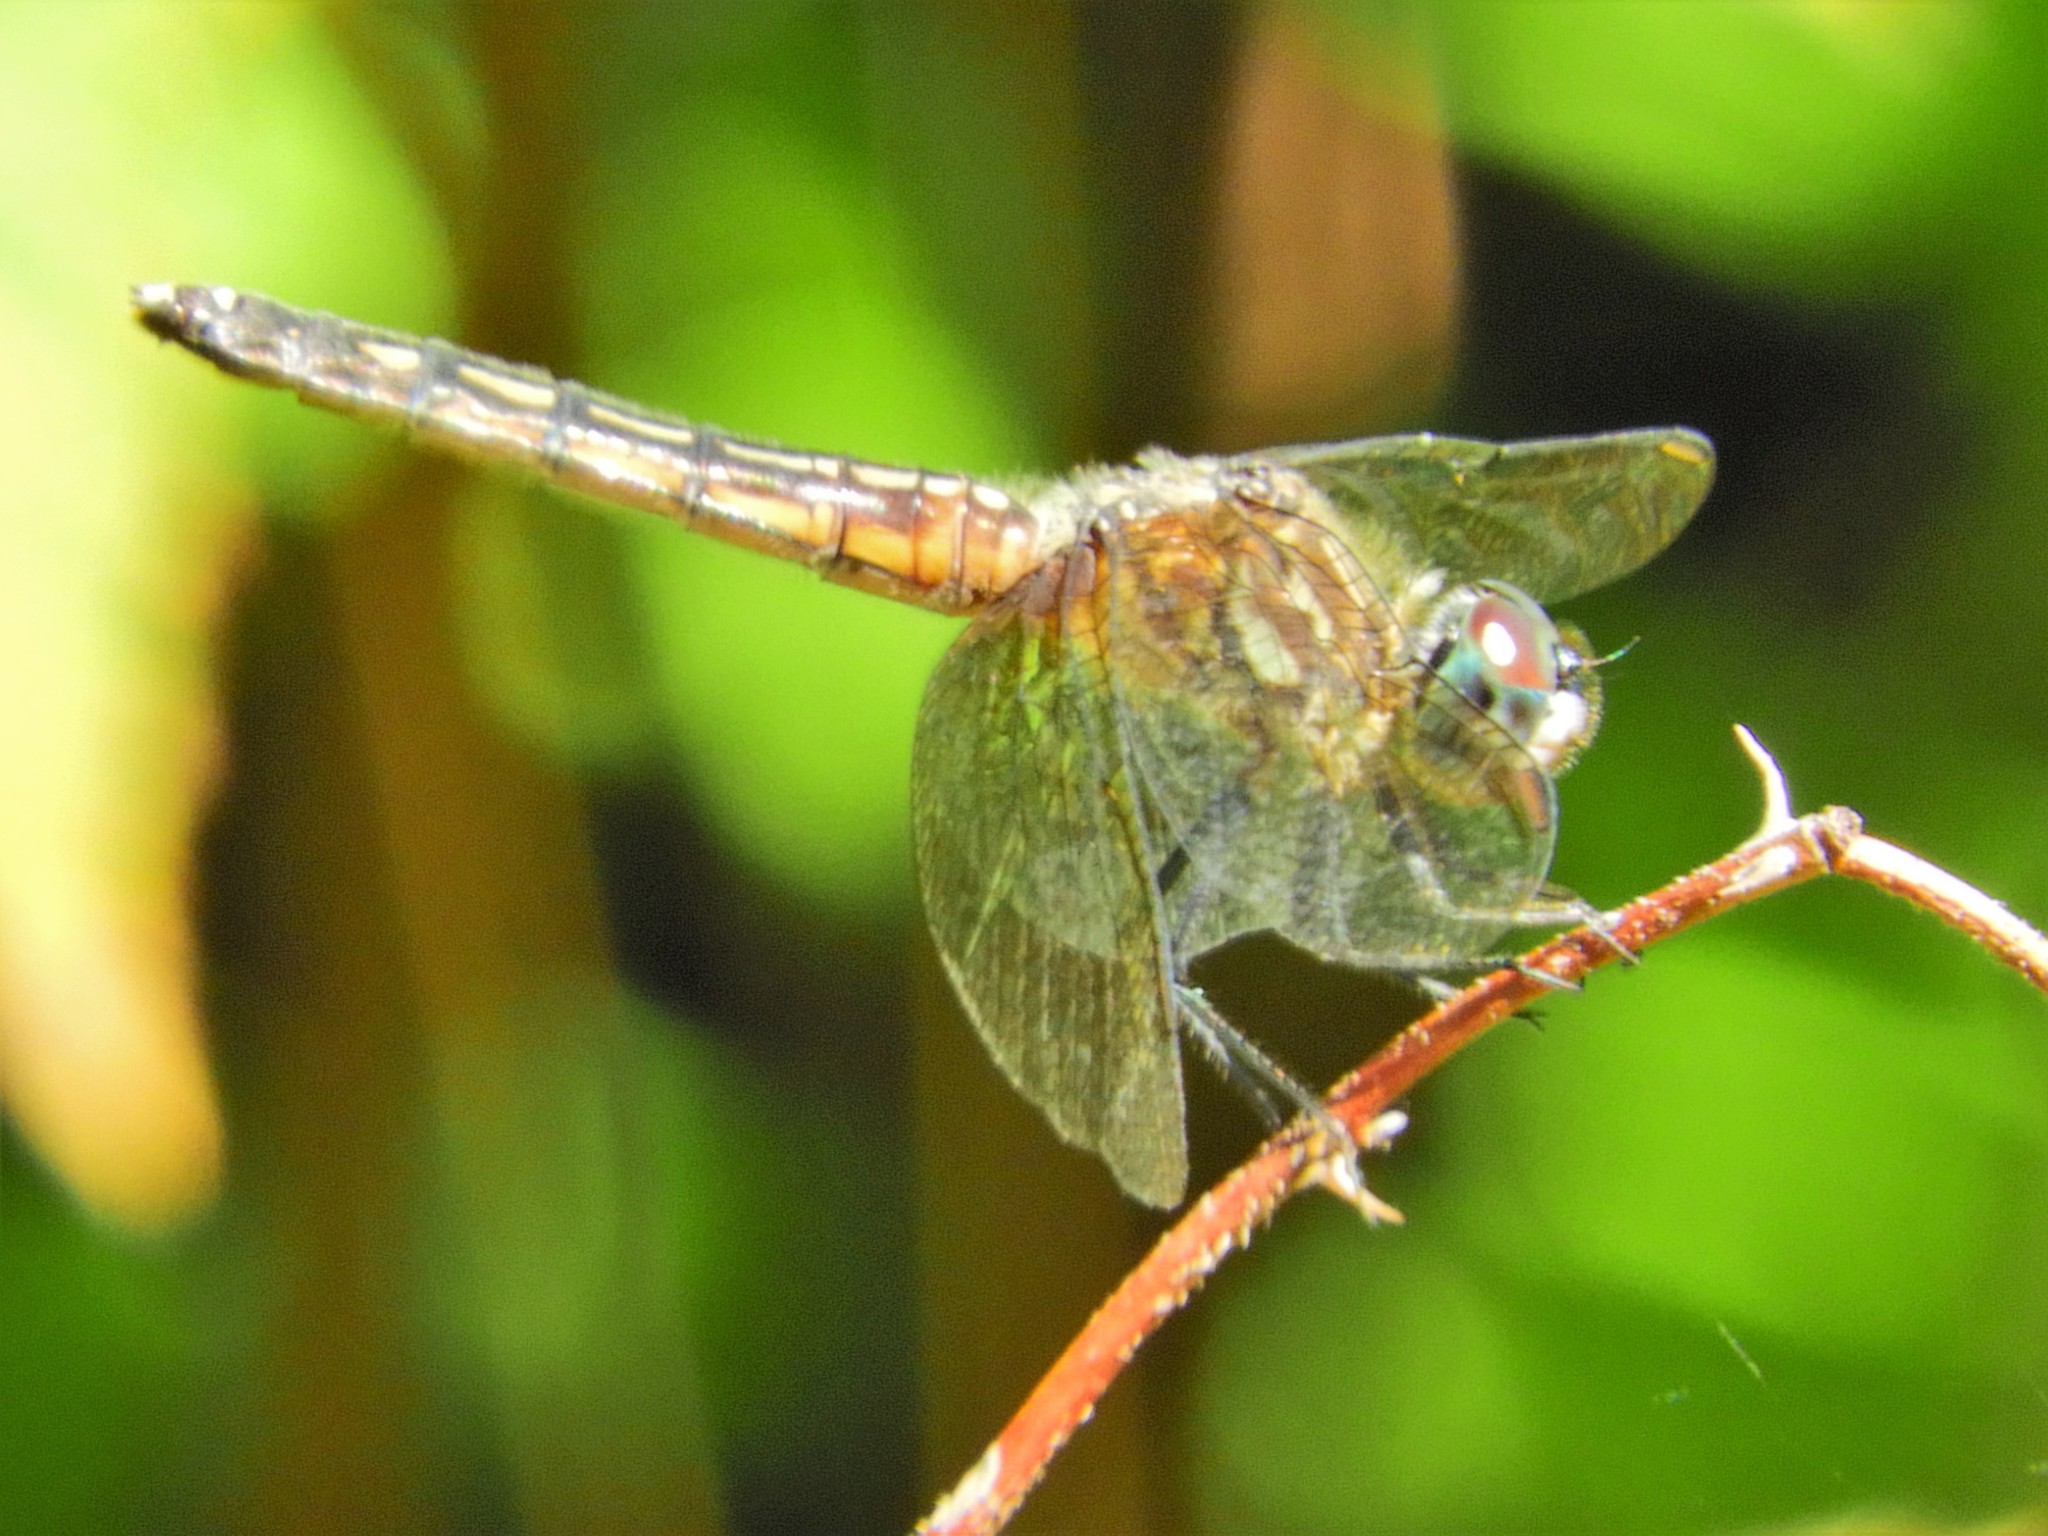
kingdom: Animalia
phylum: Arthropoda
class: Insecta
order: Odonata
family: Libellulidae
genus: Pachydiplax
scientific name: Pachydiplax longipennis
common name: Blue dasher
